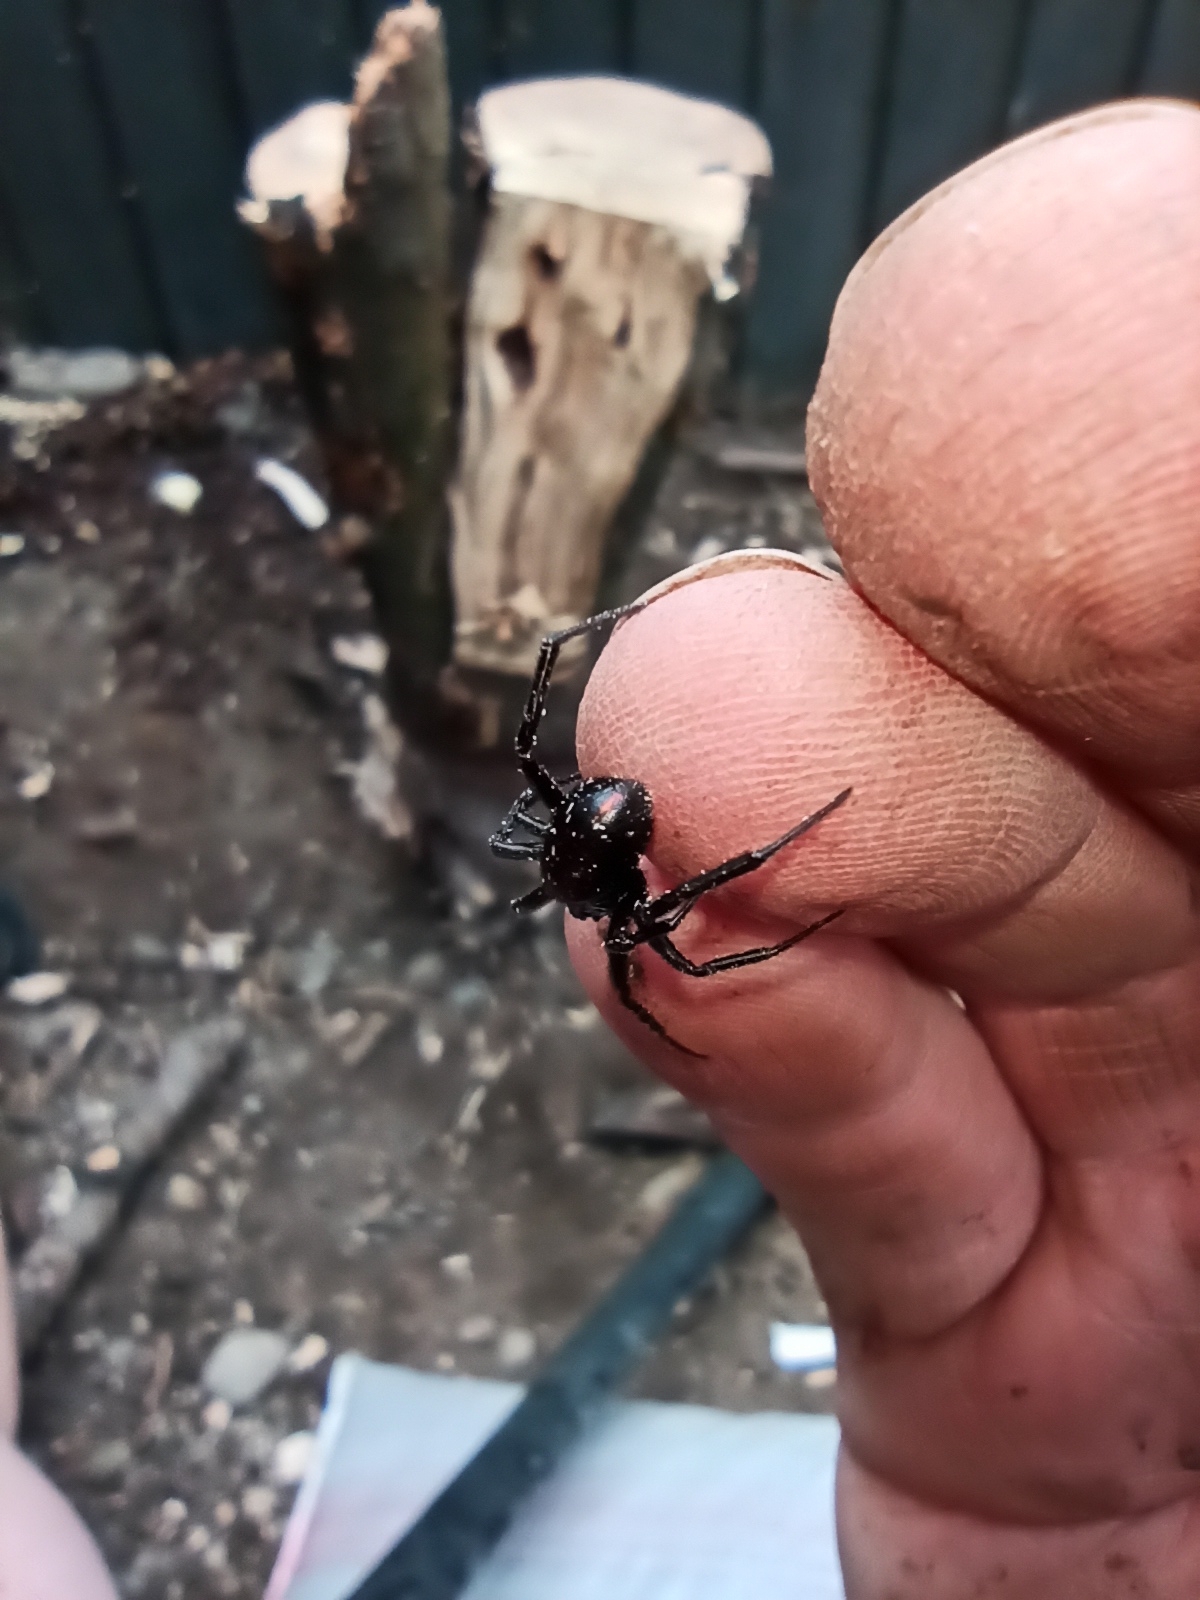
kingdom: Animalia
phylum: Arthropoda
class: Arachnida
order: Araneae
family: Theridiidae
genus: Steatoda
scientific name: Steatoda capensis
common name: Cobweb weaver
